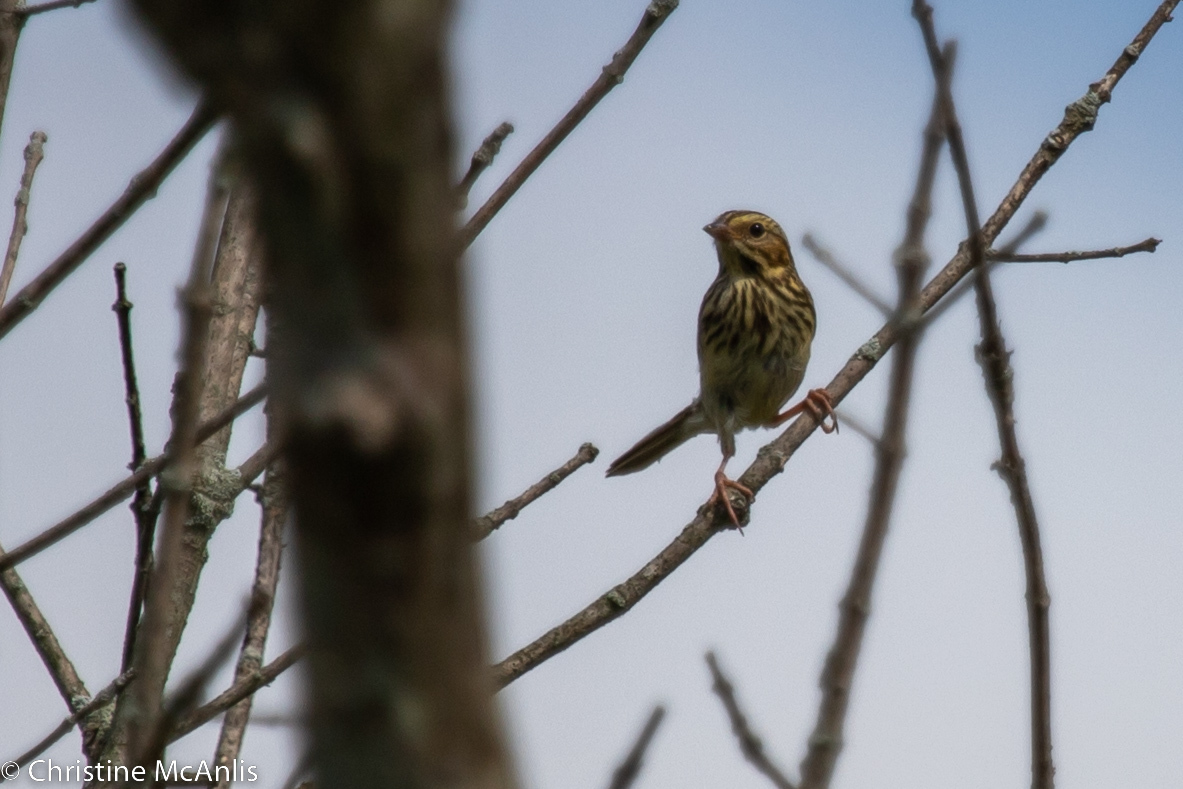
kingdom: Animalia
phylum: Chordata
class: Aves
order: Passeriformes
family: Passerellidae
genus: Passerculus
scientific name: Passerculus sandwichensis
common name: Savannah sparrow
